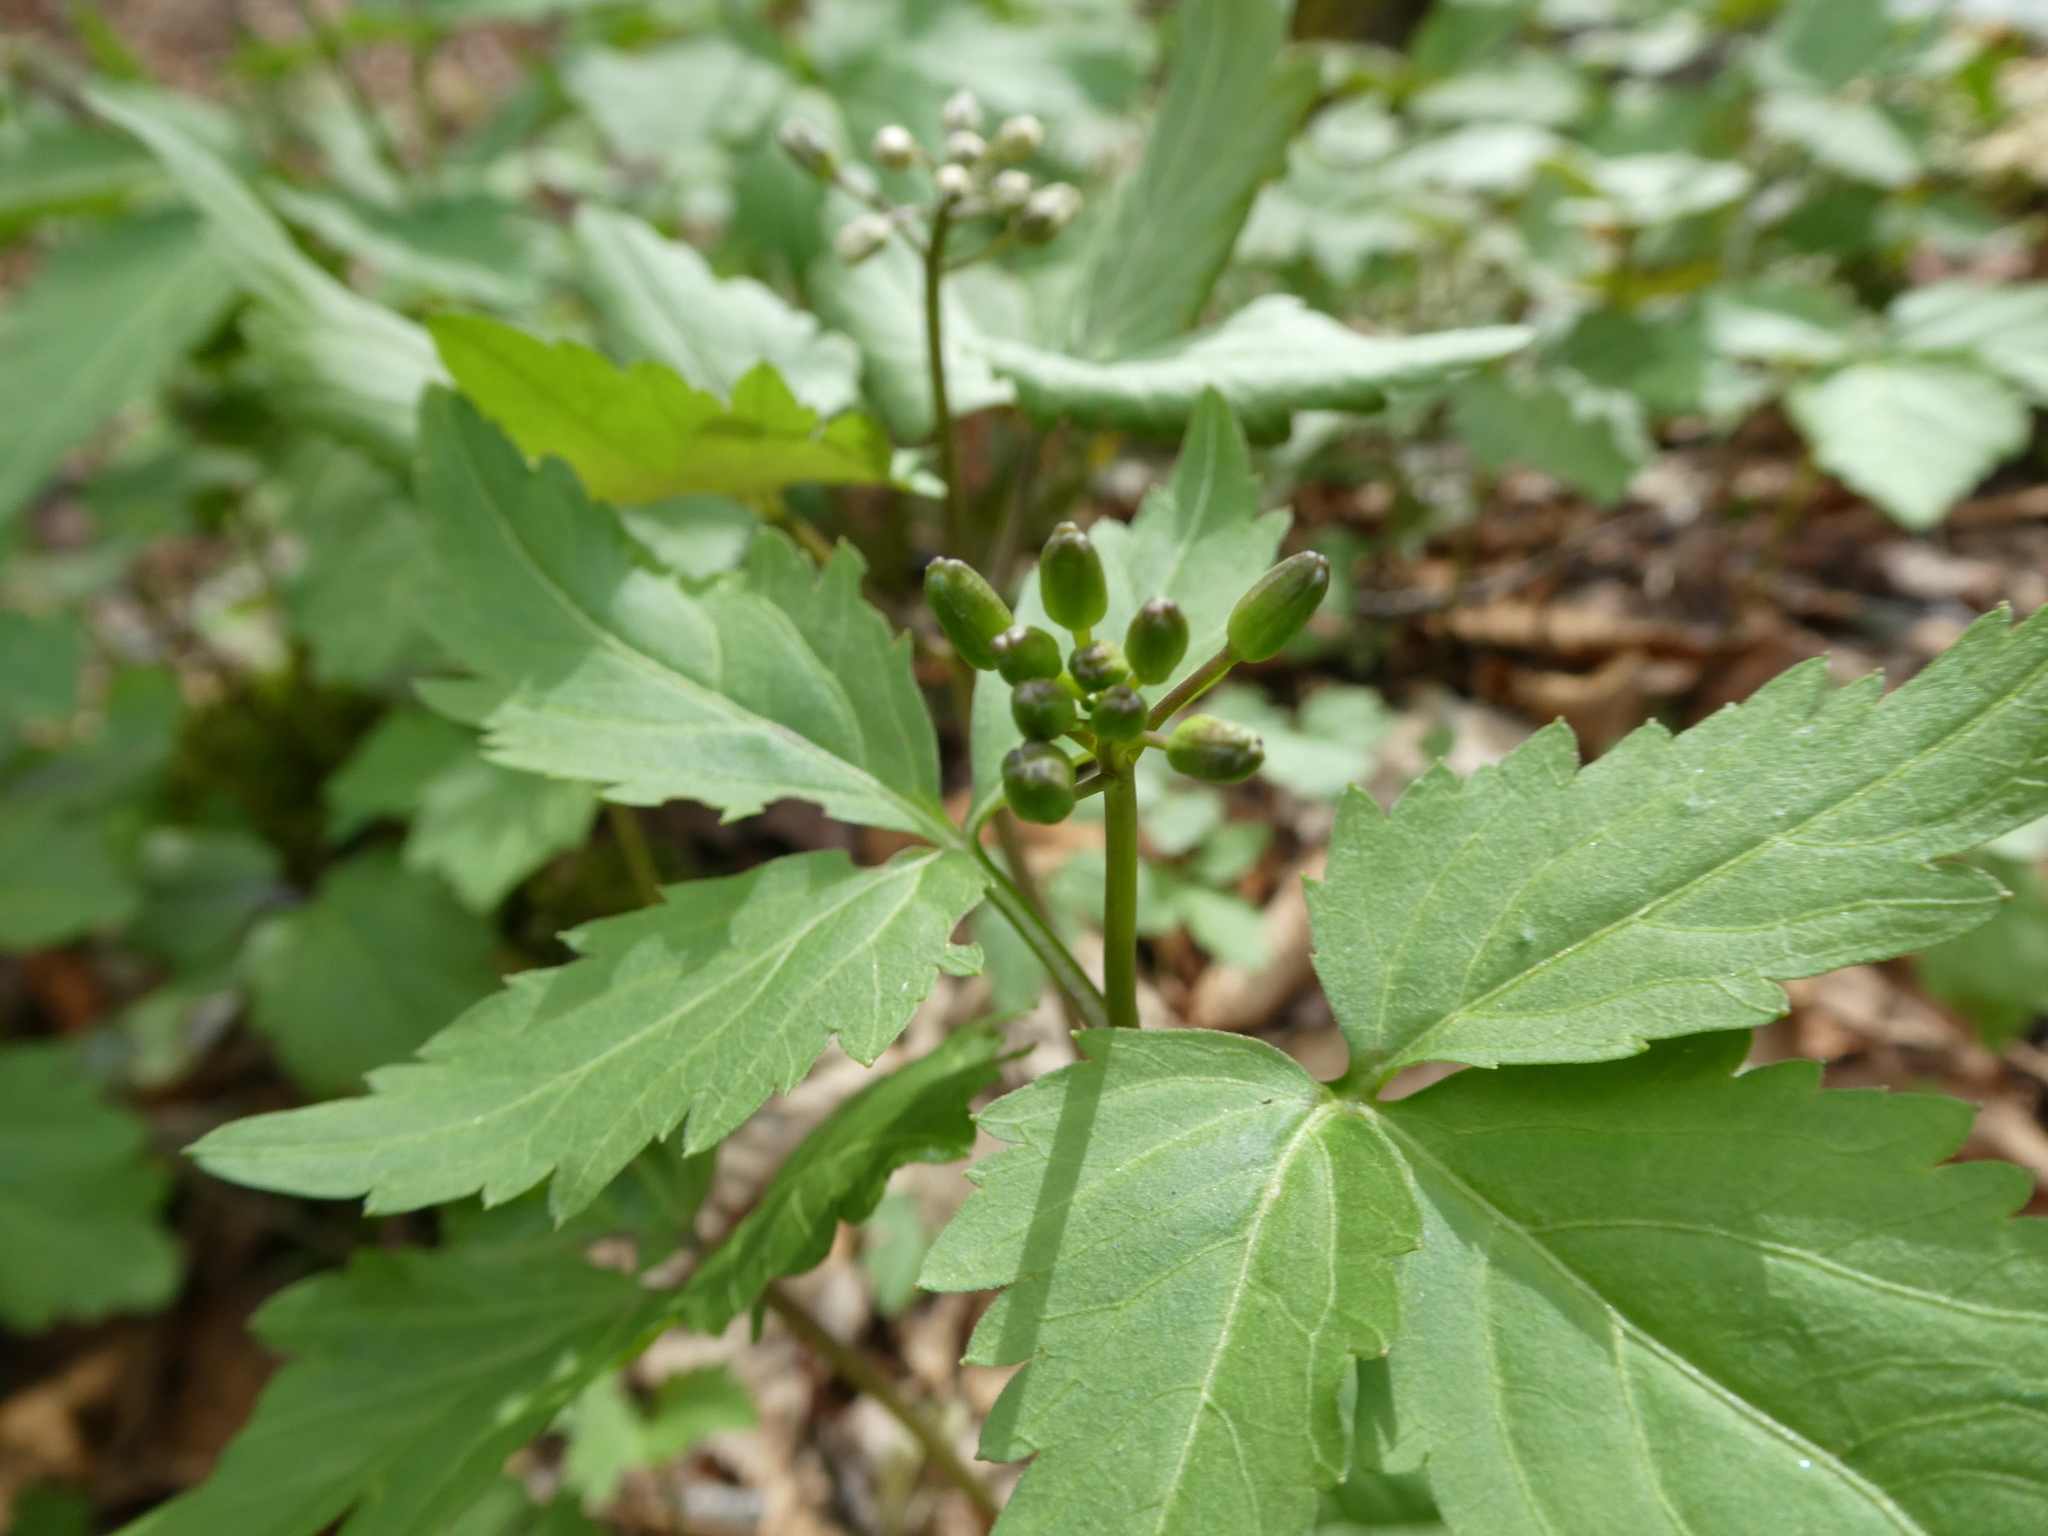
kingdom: Plantae
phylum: Tracheophyta
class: Magnoliopsida
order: Brassicales
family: Brassicaceae
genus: Cardamine
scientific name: Cardamine diphylla
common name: Broad-leaved toothwort
